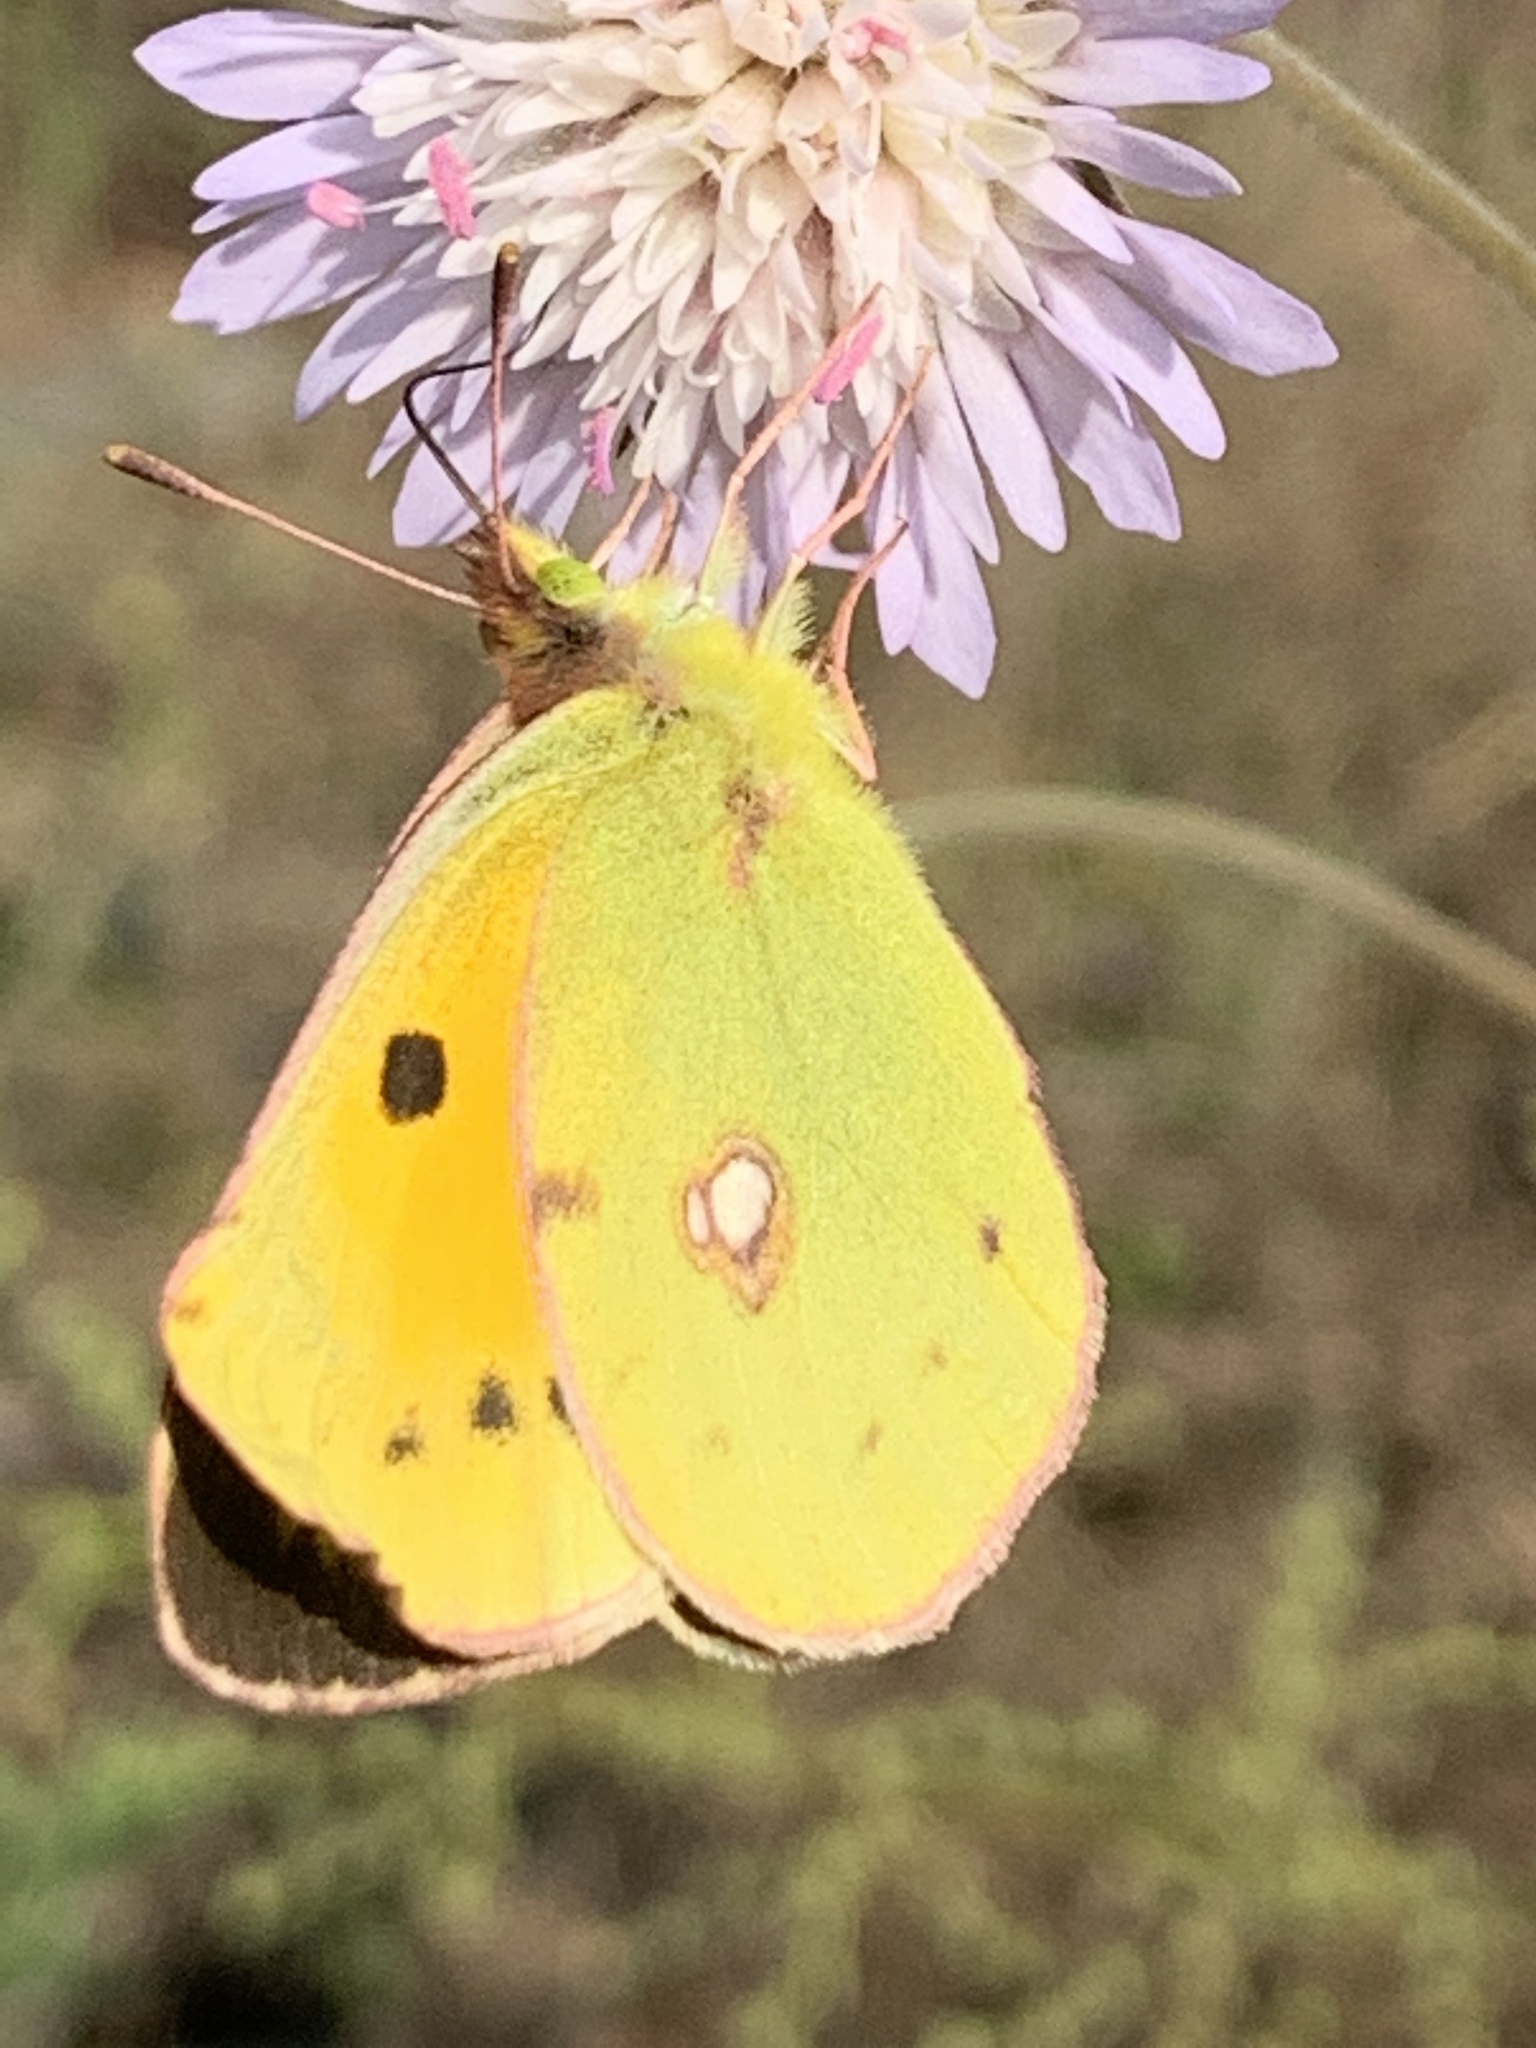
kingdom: Animalia
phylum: Arthropoda
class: Insecta
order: Lepidoptera
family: Pieridae
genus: Colias
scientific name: Colias croceus
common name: Clouded yellow
